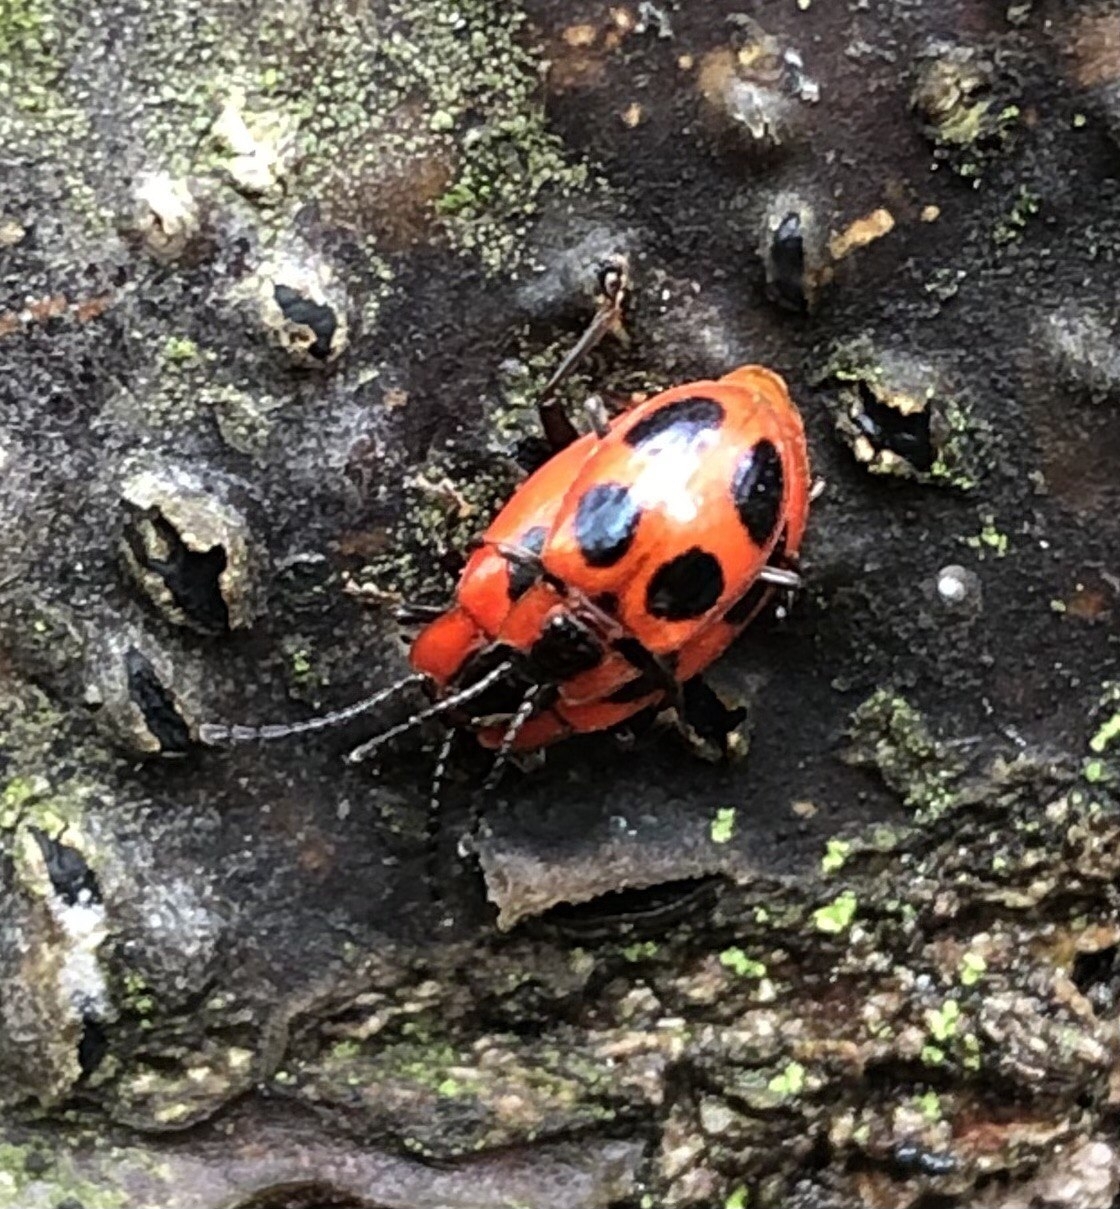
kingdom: Animalia
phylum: Arthropoda
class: Insecta
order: Coleoptera
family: Endomychidae
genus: Endomychus
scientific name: Endomychus coccineus
